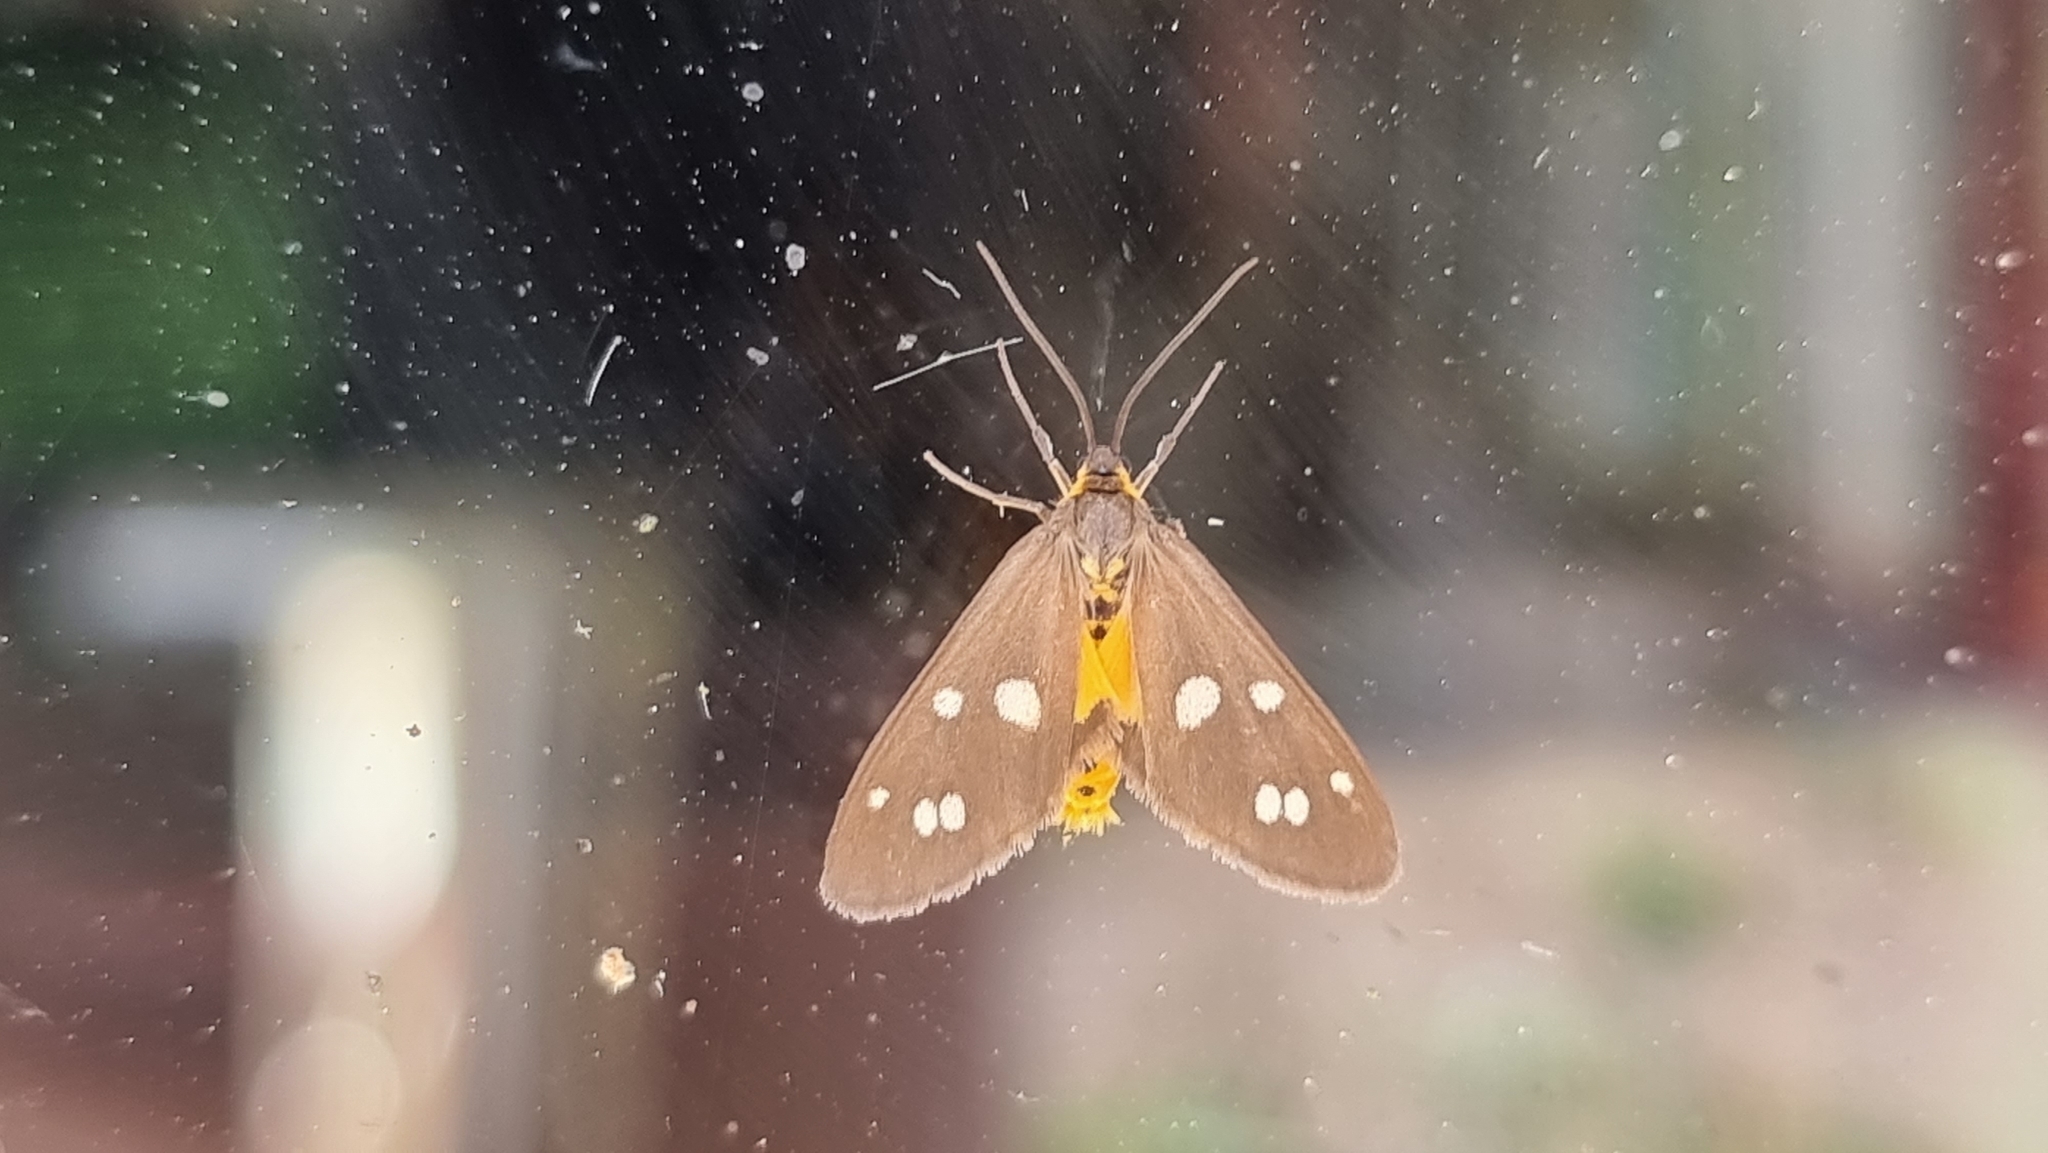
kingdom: Animalia
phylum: Arthropoda
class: Insecta
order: Lepidoptera
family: Erebidae
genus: Dysauxes
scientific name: Dysauxes punctata
